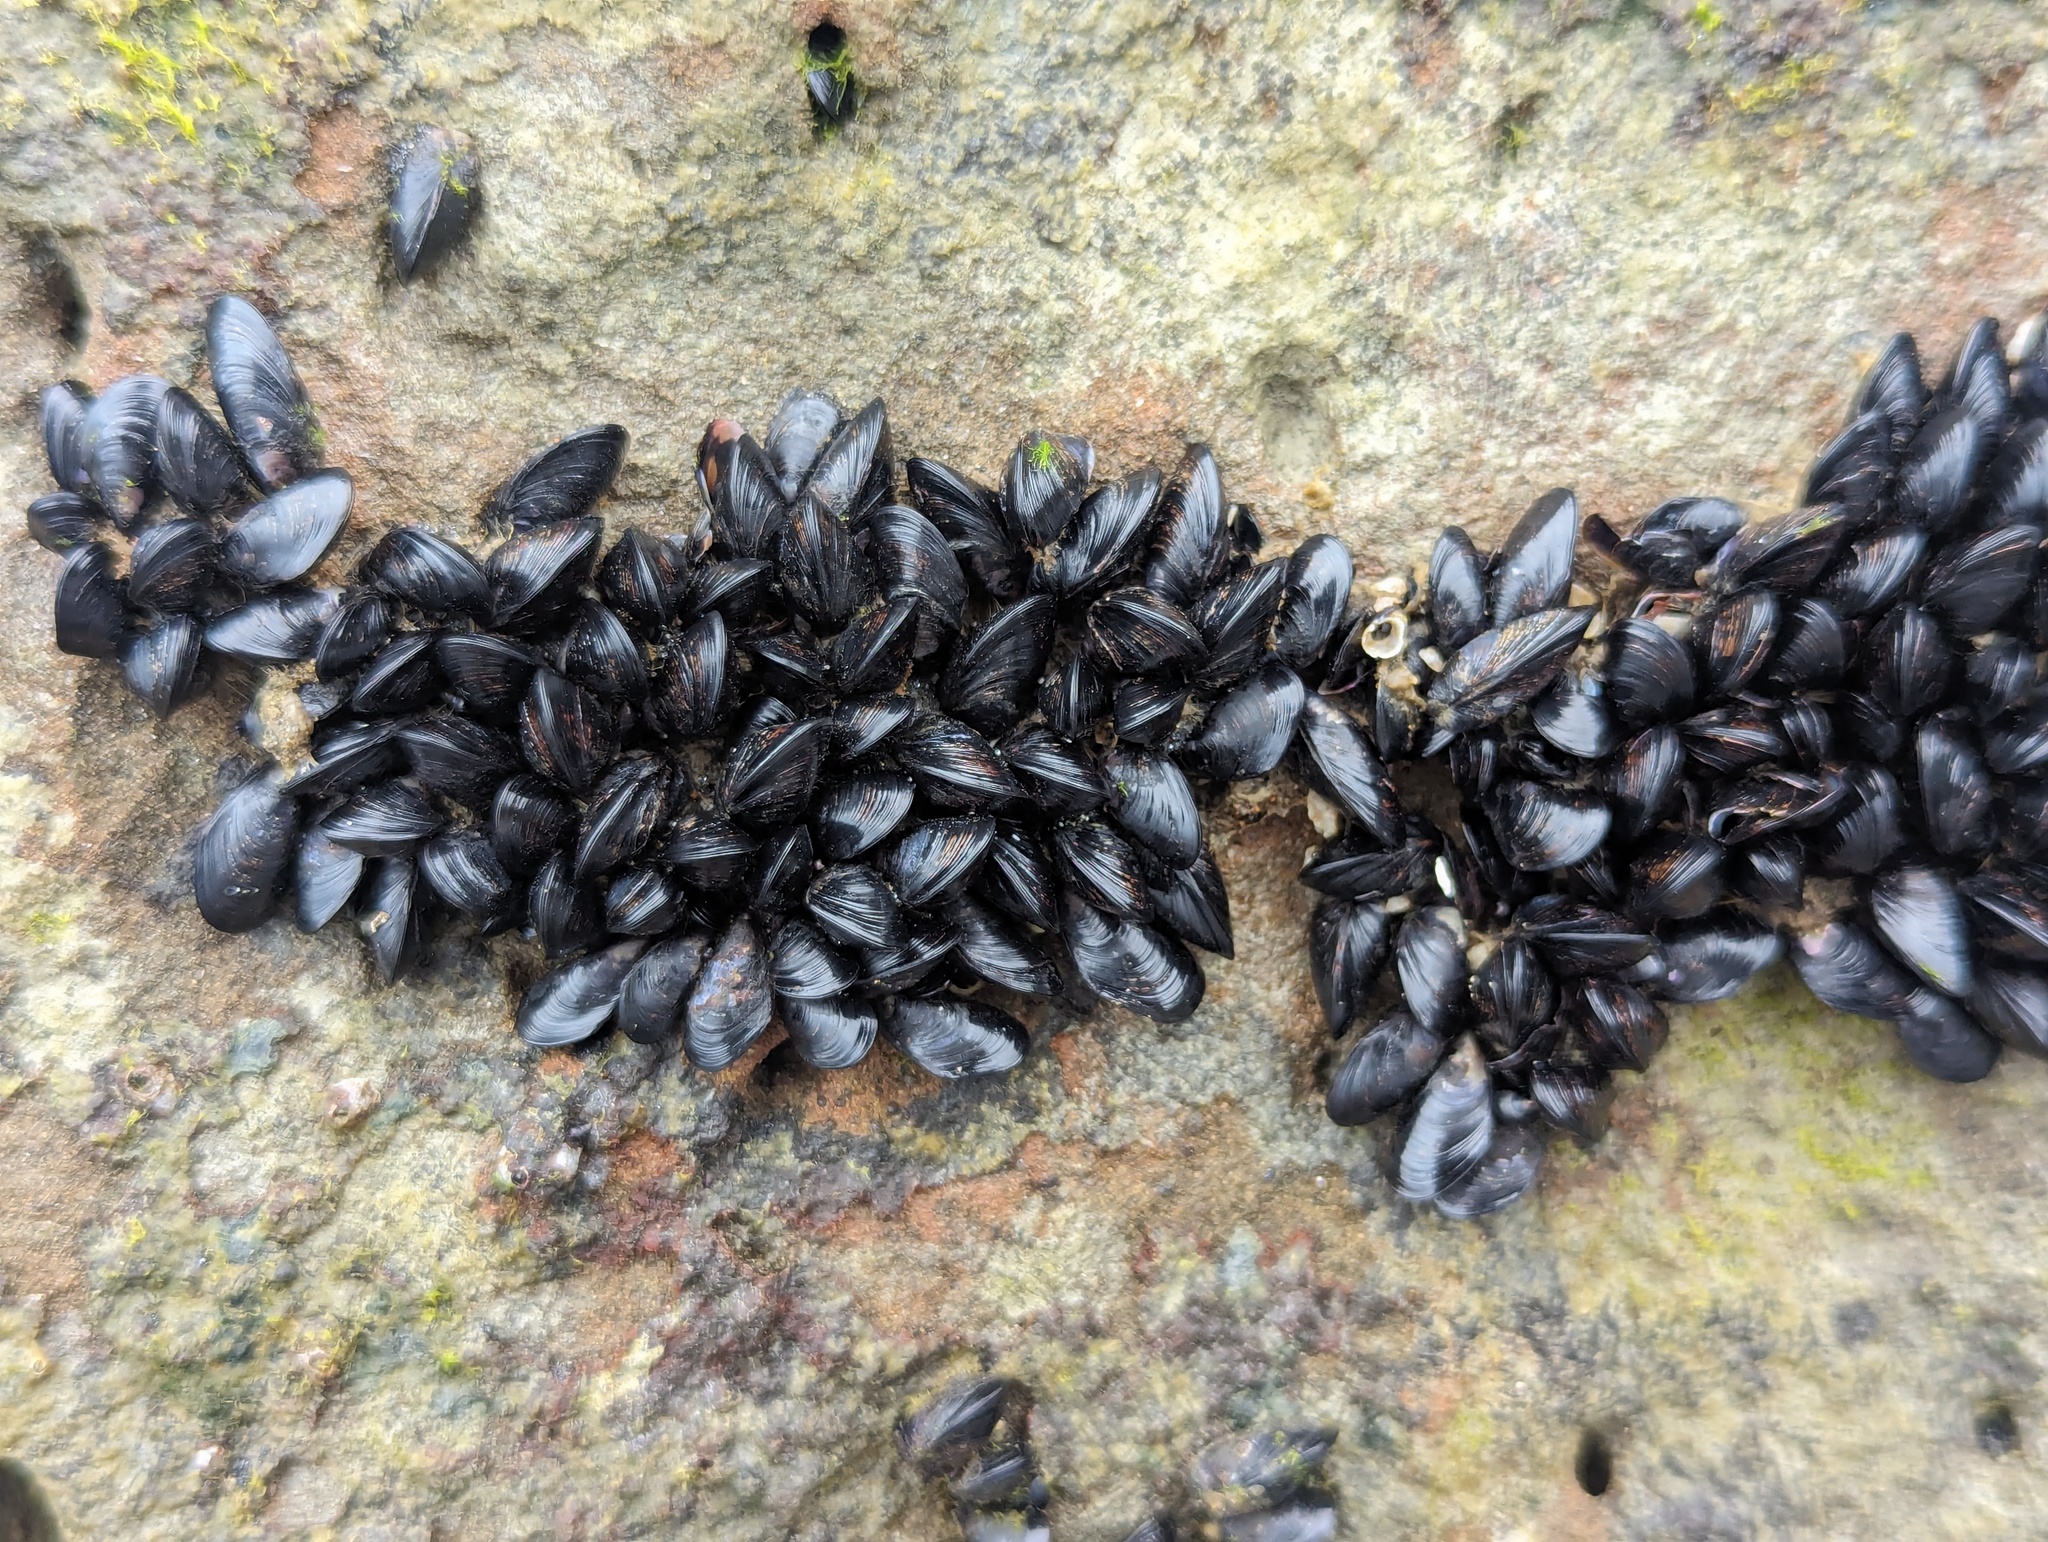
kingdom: Animalia
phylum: Mollusca
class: Bivalvia
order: Mytilida
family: Mytilidae
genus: Xenostrobus
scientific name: Xenostrobus neozelanicus
